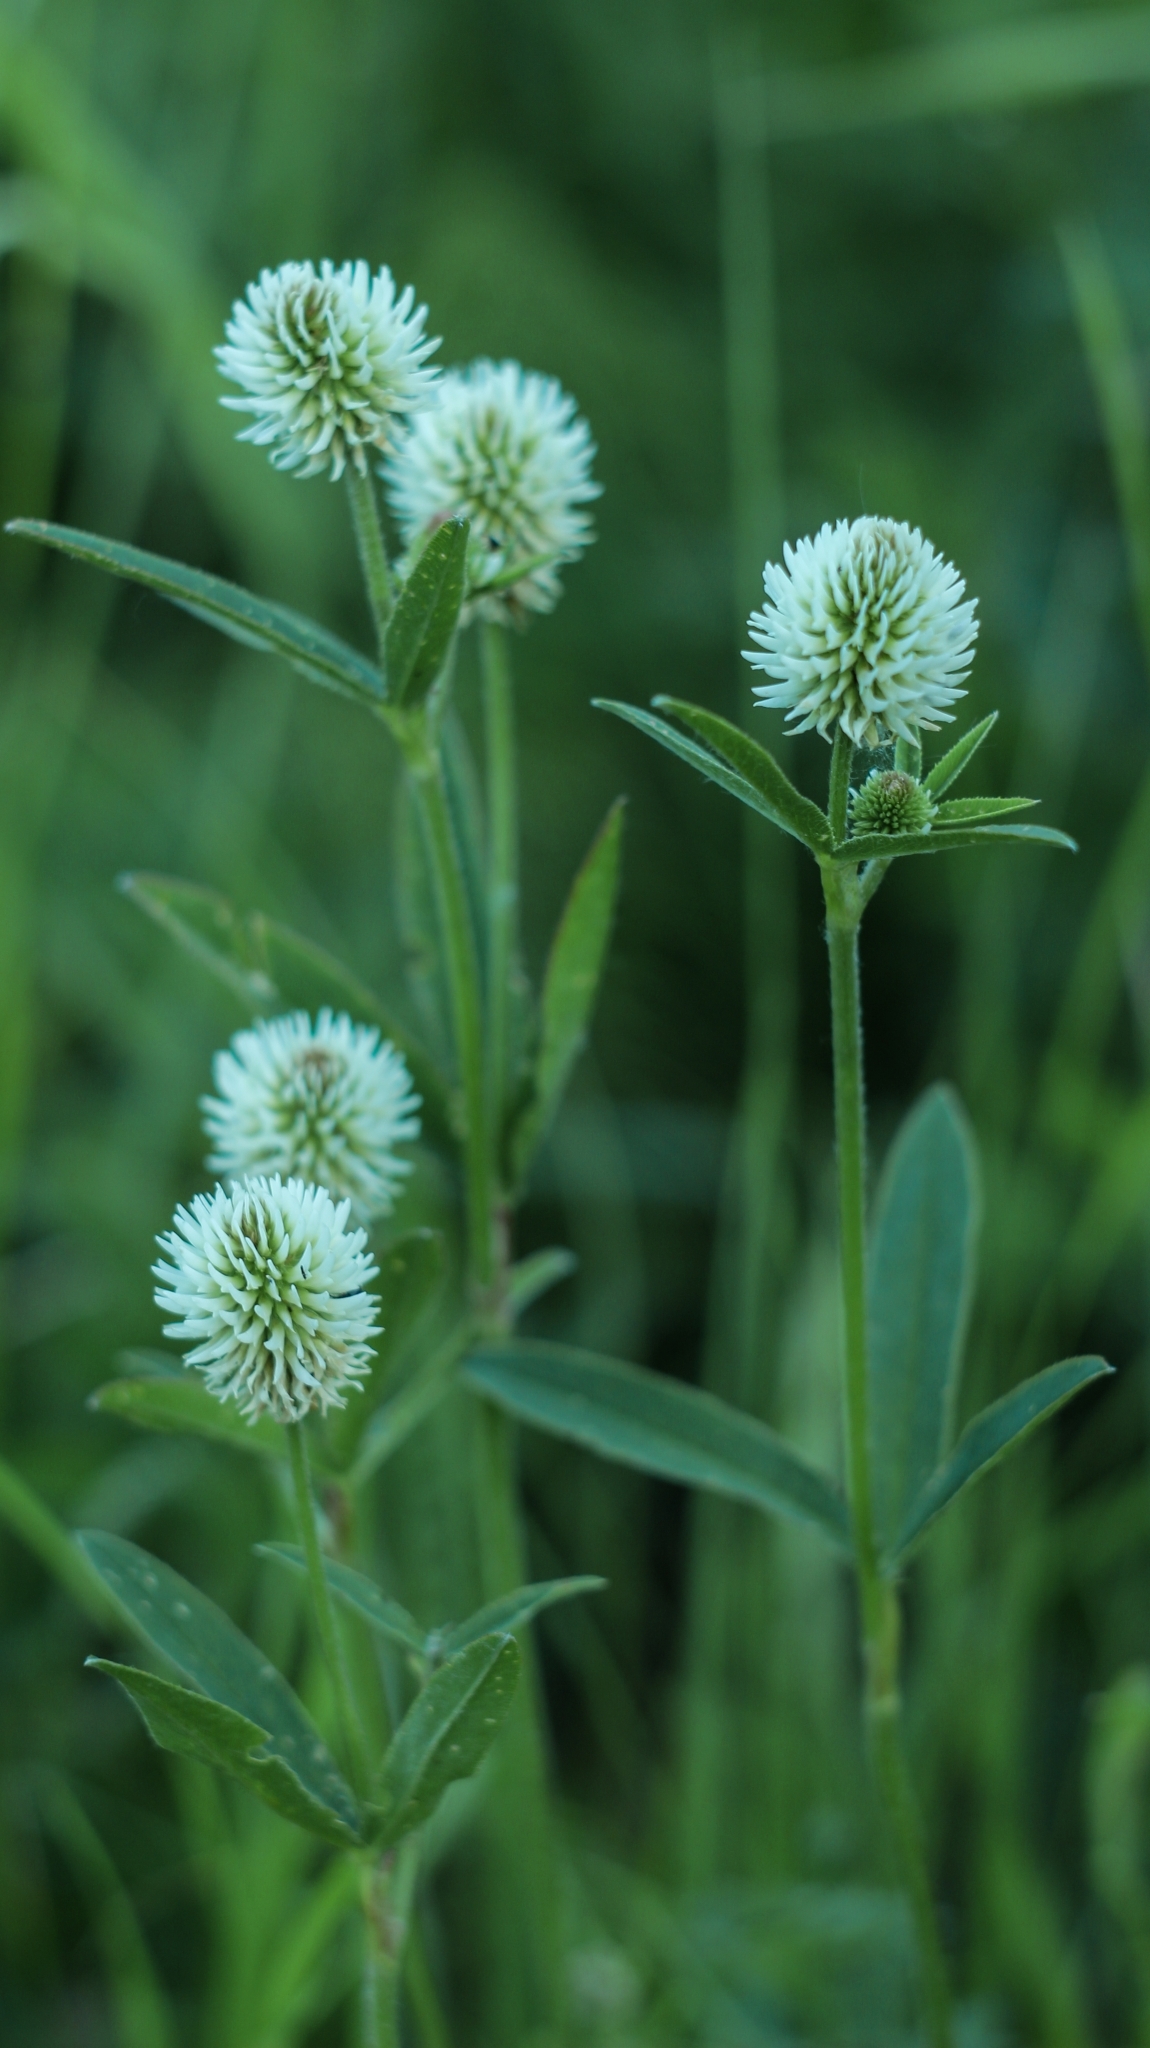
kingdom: Plantae
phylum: Tracheophyta
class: Magnoliopsida
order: Fabales
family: Fabaceae
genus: Trifolium
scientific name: Trifolium montanum
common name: Mountain clover
